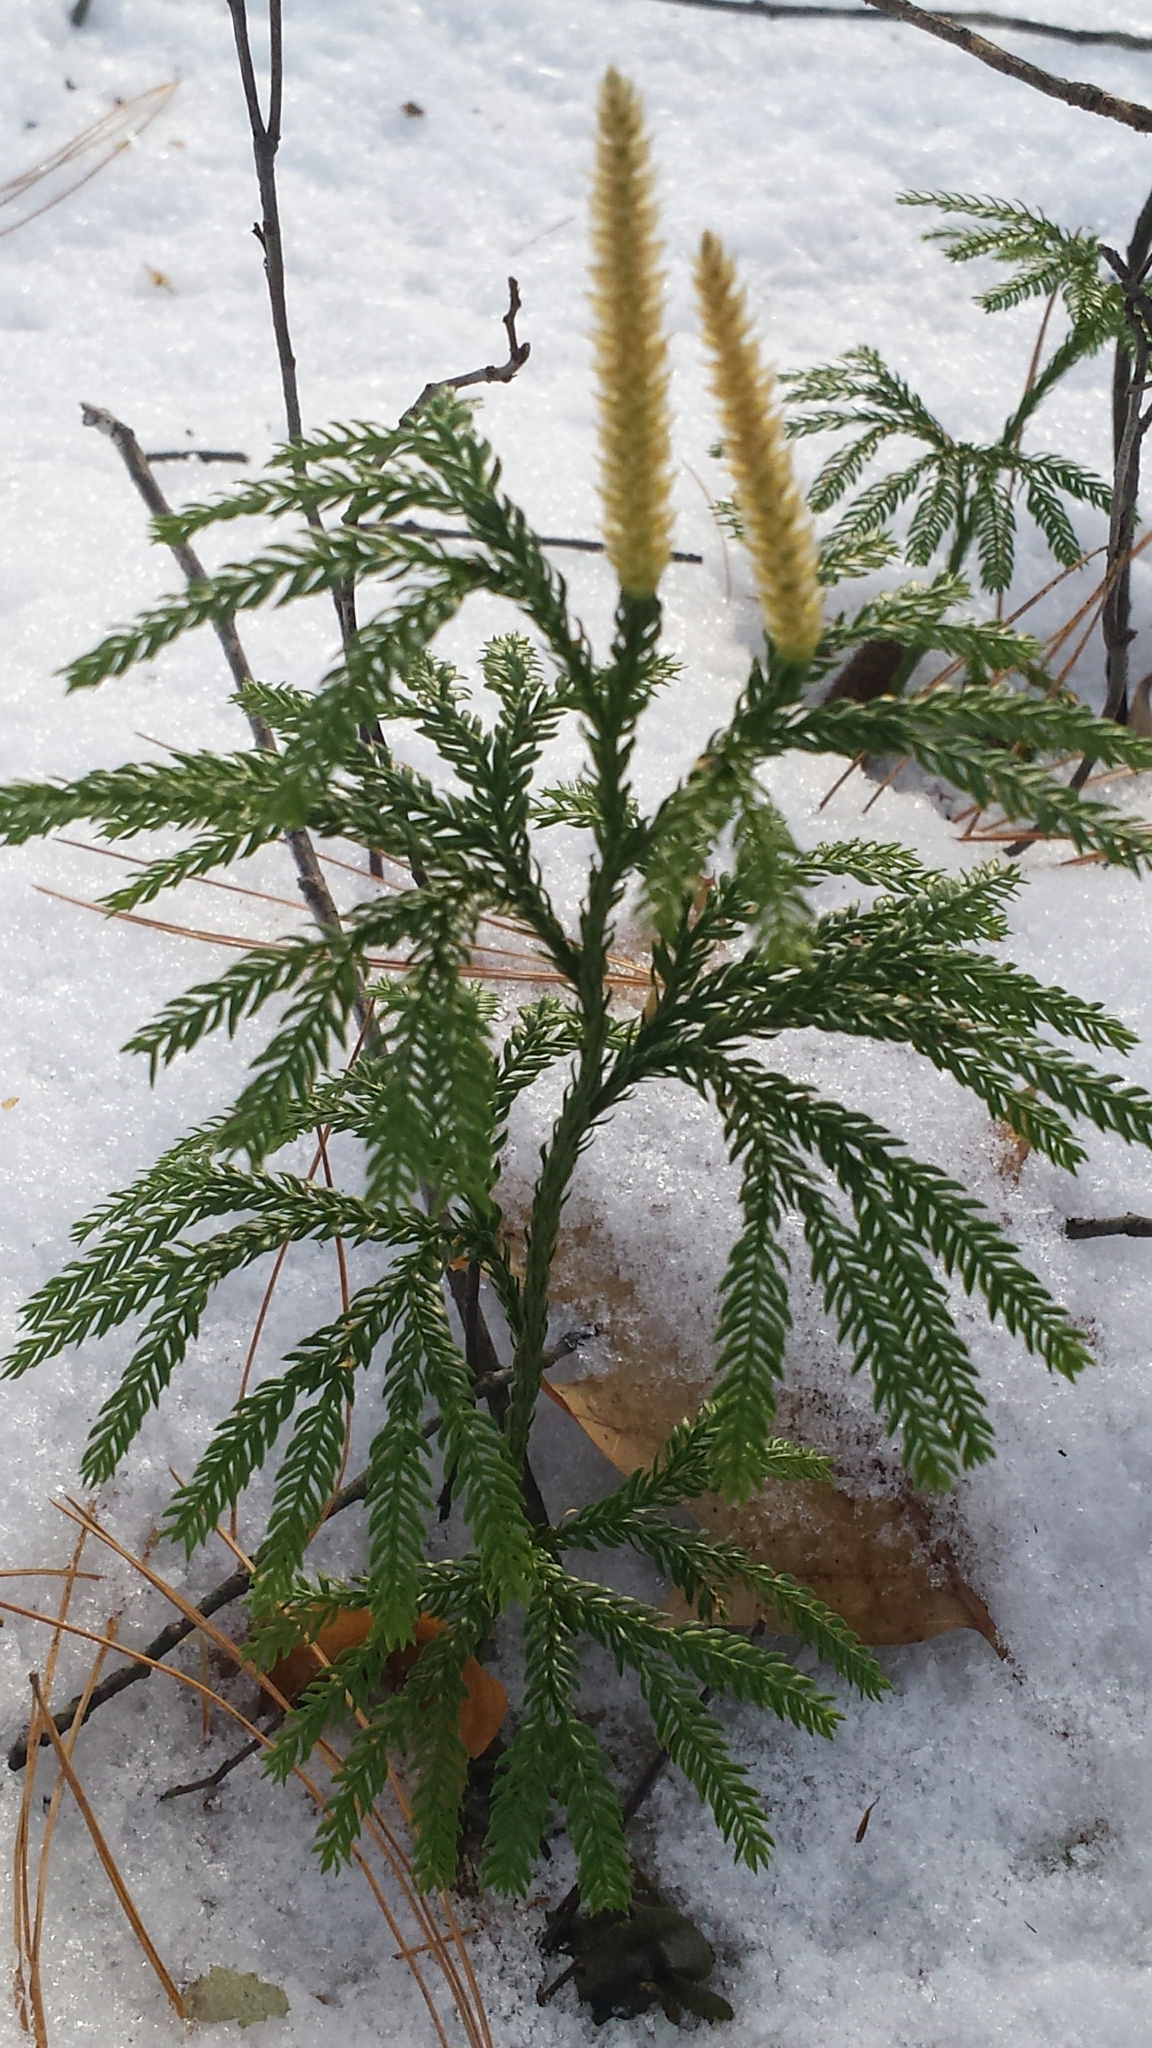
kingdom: Plantae
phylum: Tracheophyta
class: Lycopodiopsida
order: Lycopodiales
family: Lycopodiaceae
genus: Dendrolycopodium
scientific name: Dendrolycopodium obscurum
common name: Common ground-pine
